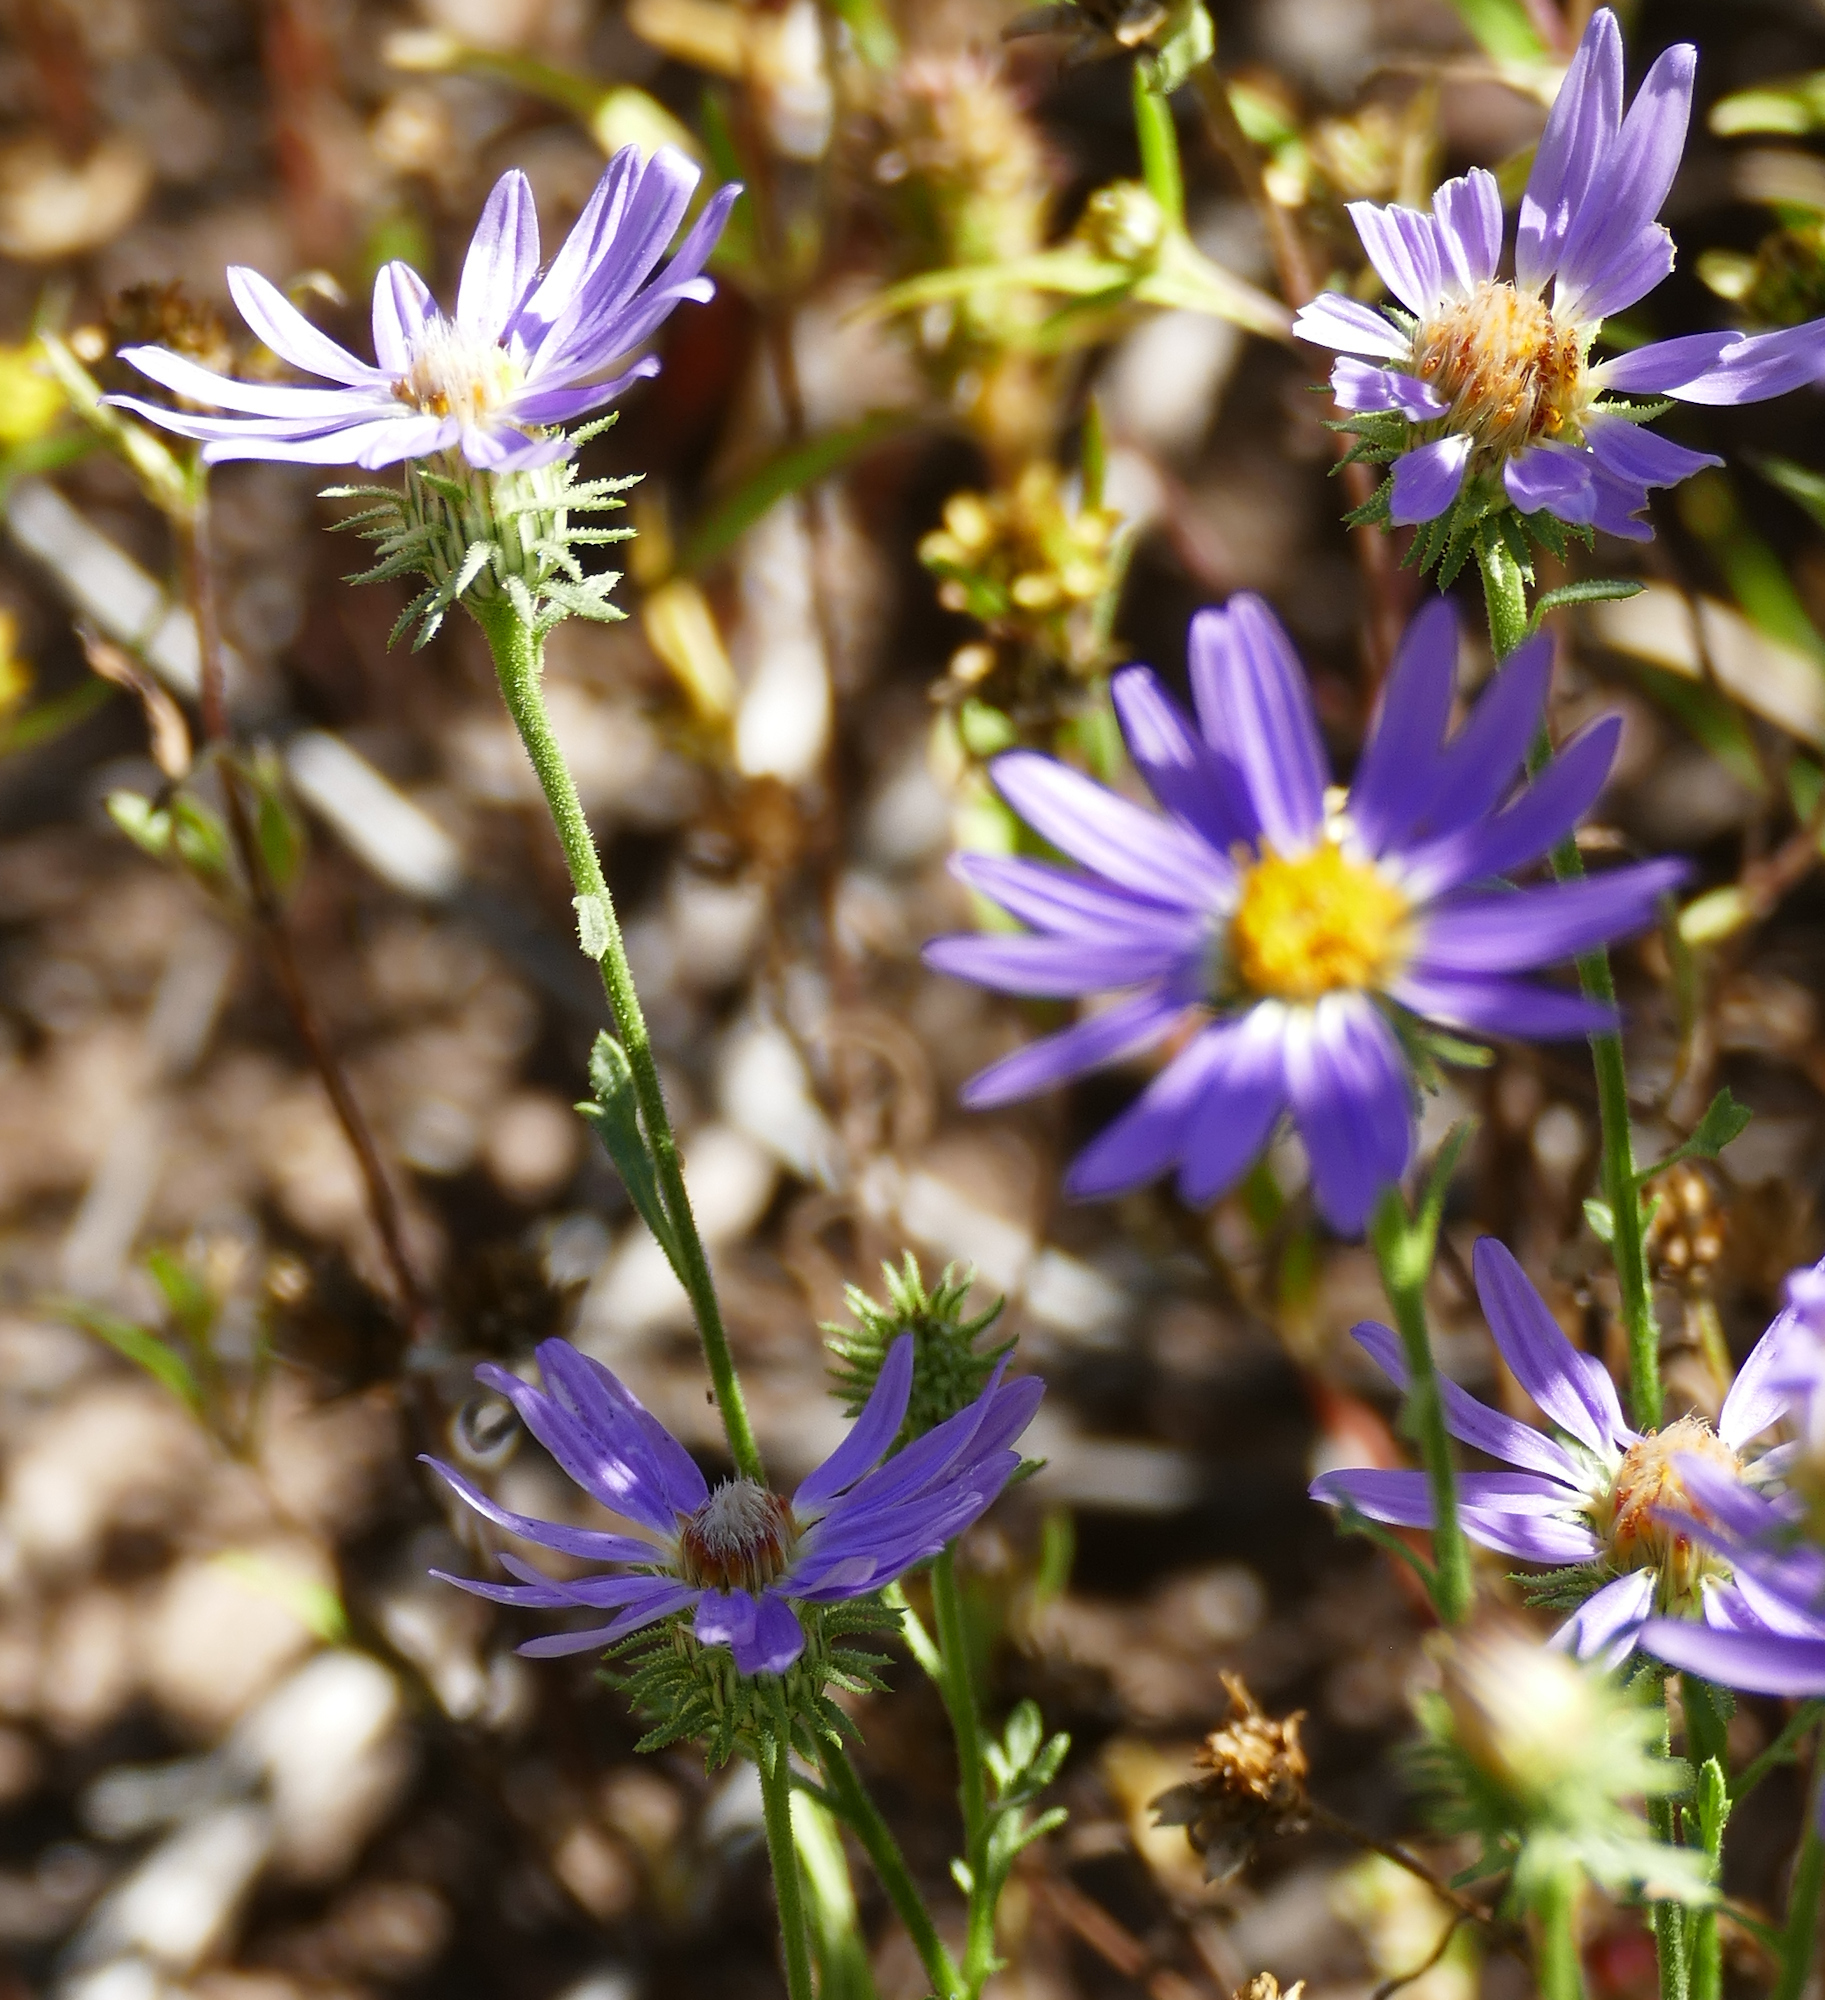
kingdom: Plantae
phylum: Tracheophyta
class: Magnoliopsida
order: Asterales
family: Asteraceae
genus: Machaeranthera
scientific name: Machaeranthera tanacetifolia
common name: Tansy-aster
